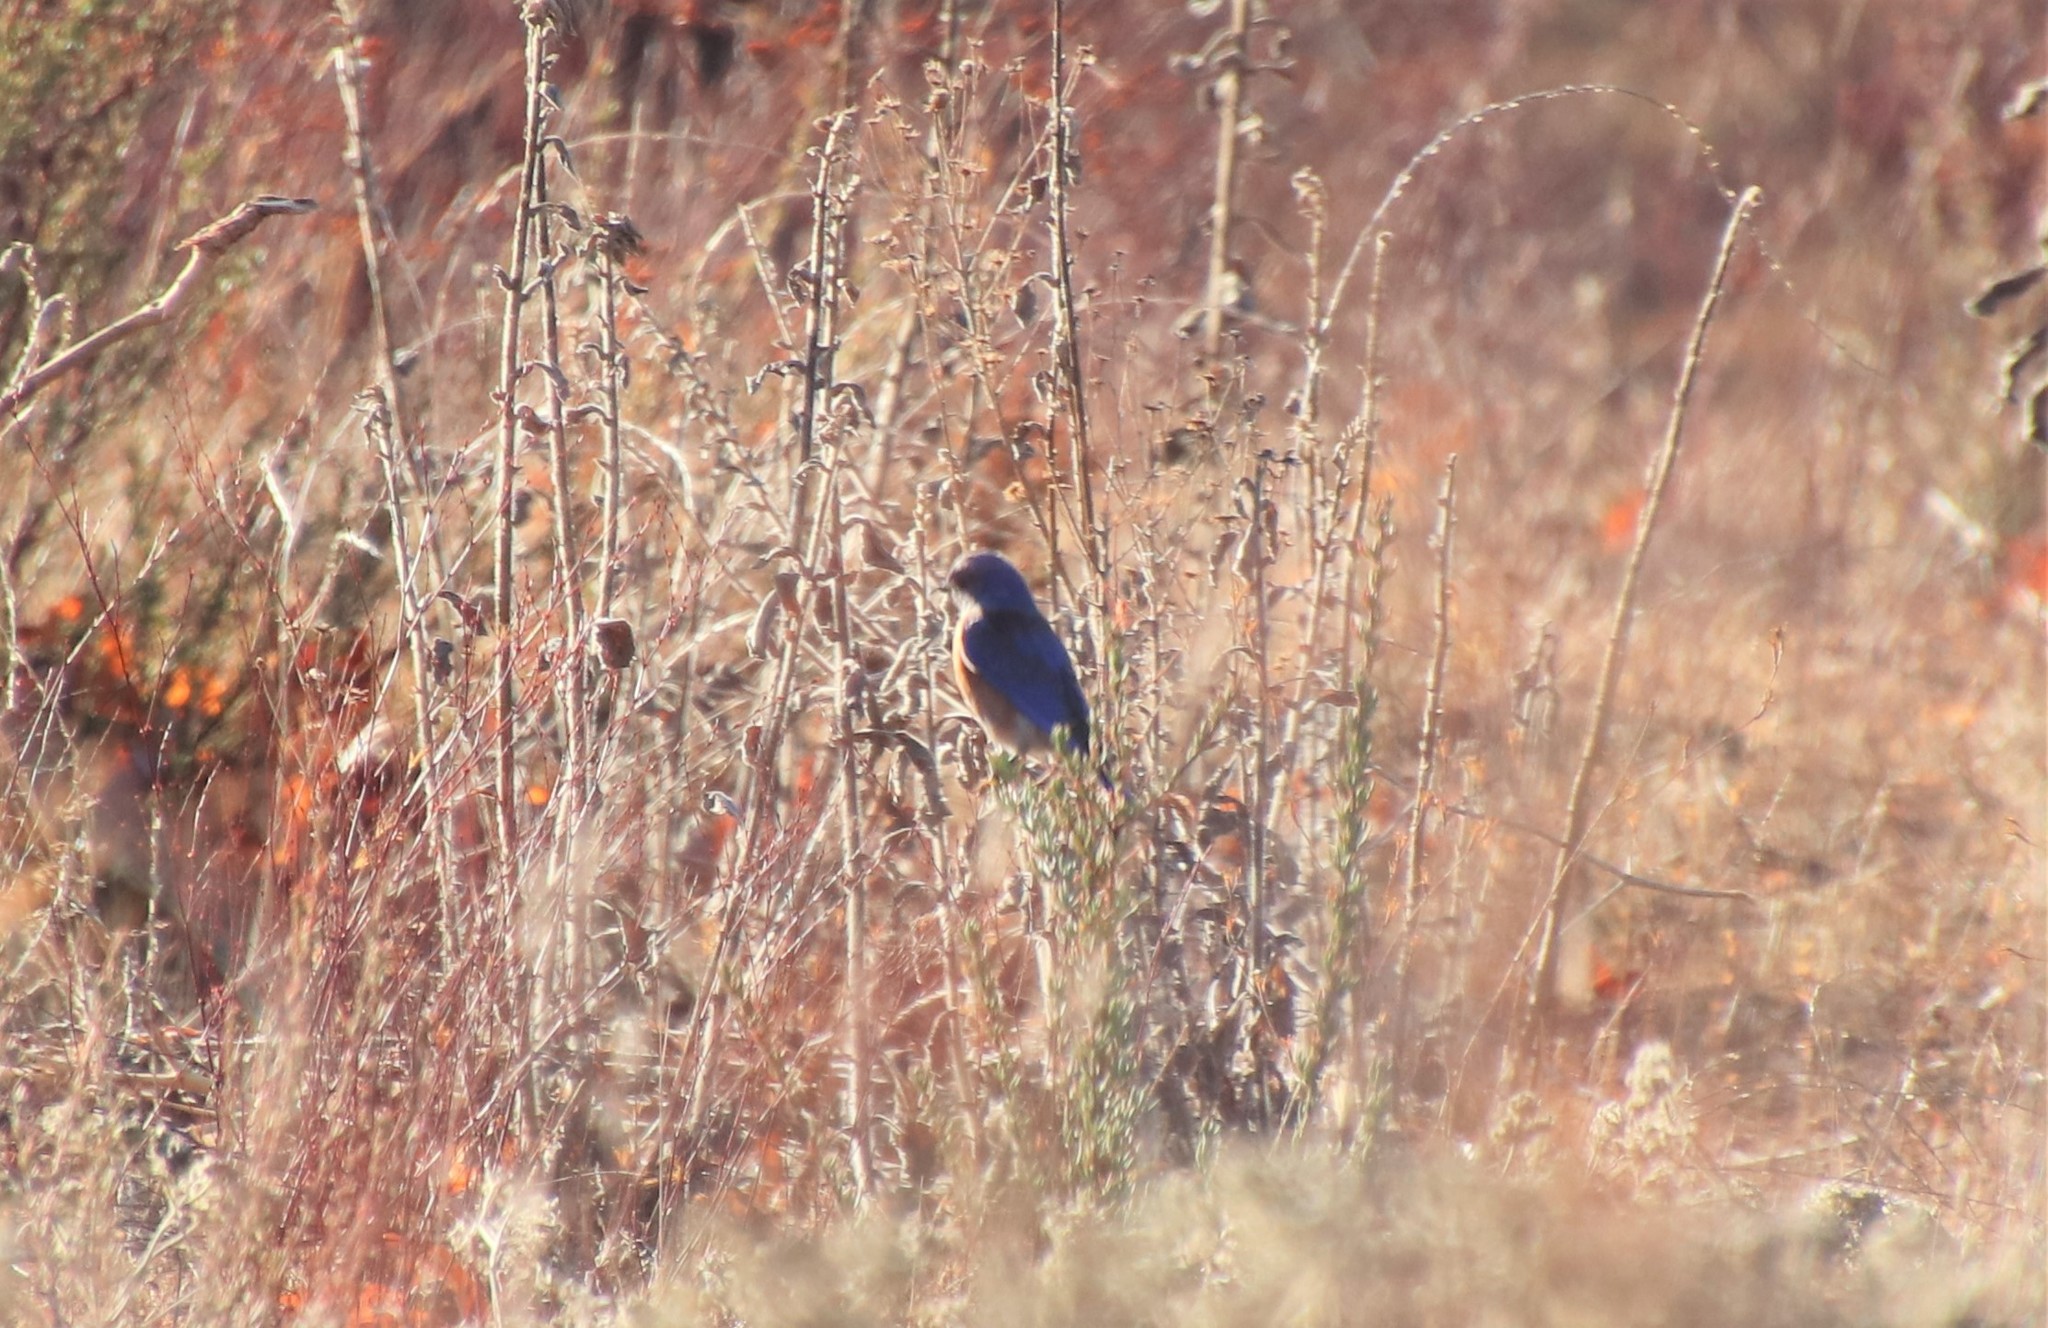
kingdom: Animalia
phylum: Chordata
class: Aves
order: Passeriformes
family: Turdidae
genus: Sialia
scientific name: Sialia mexicana
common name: Western bluebird
